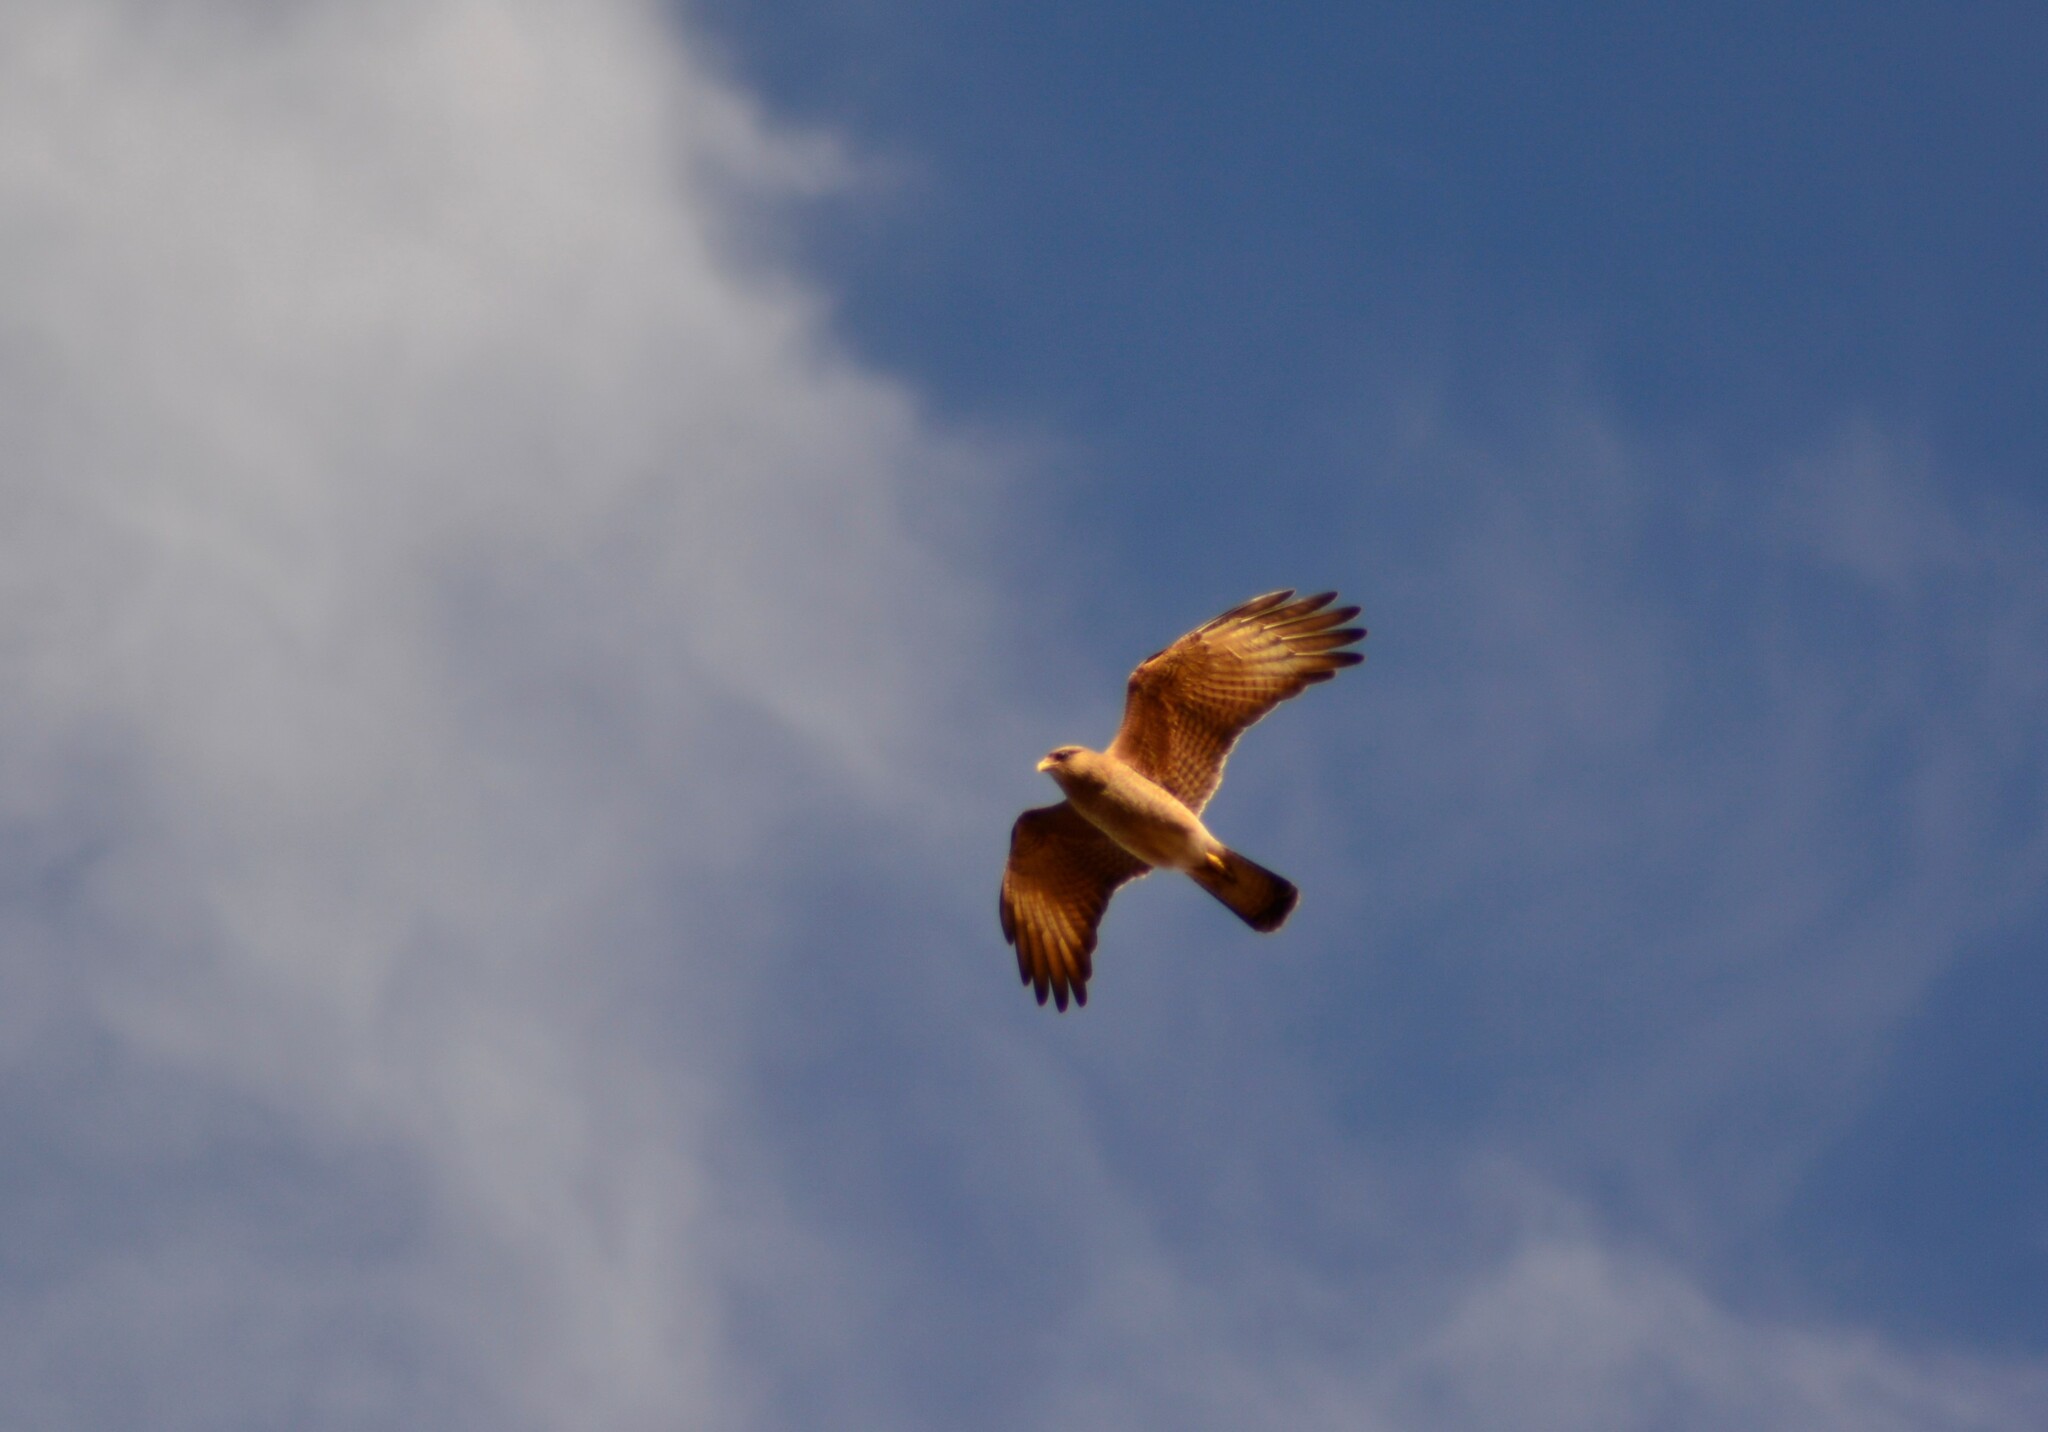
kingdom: Animalia
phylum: Chordata
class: Aves
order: Falconiformes
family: Falconidae
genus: Daptrius
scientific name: Daptrius
